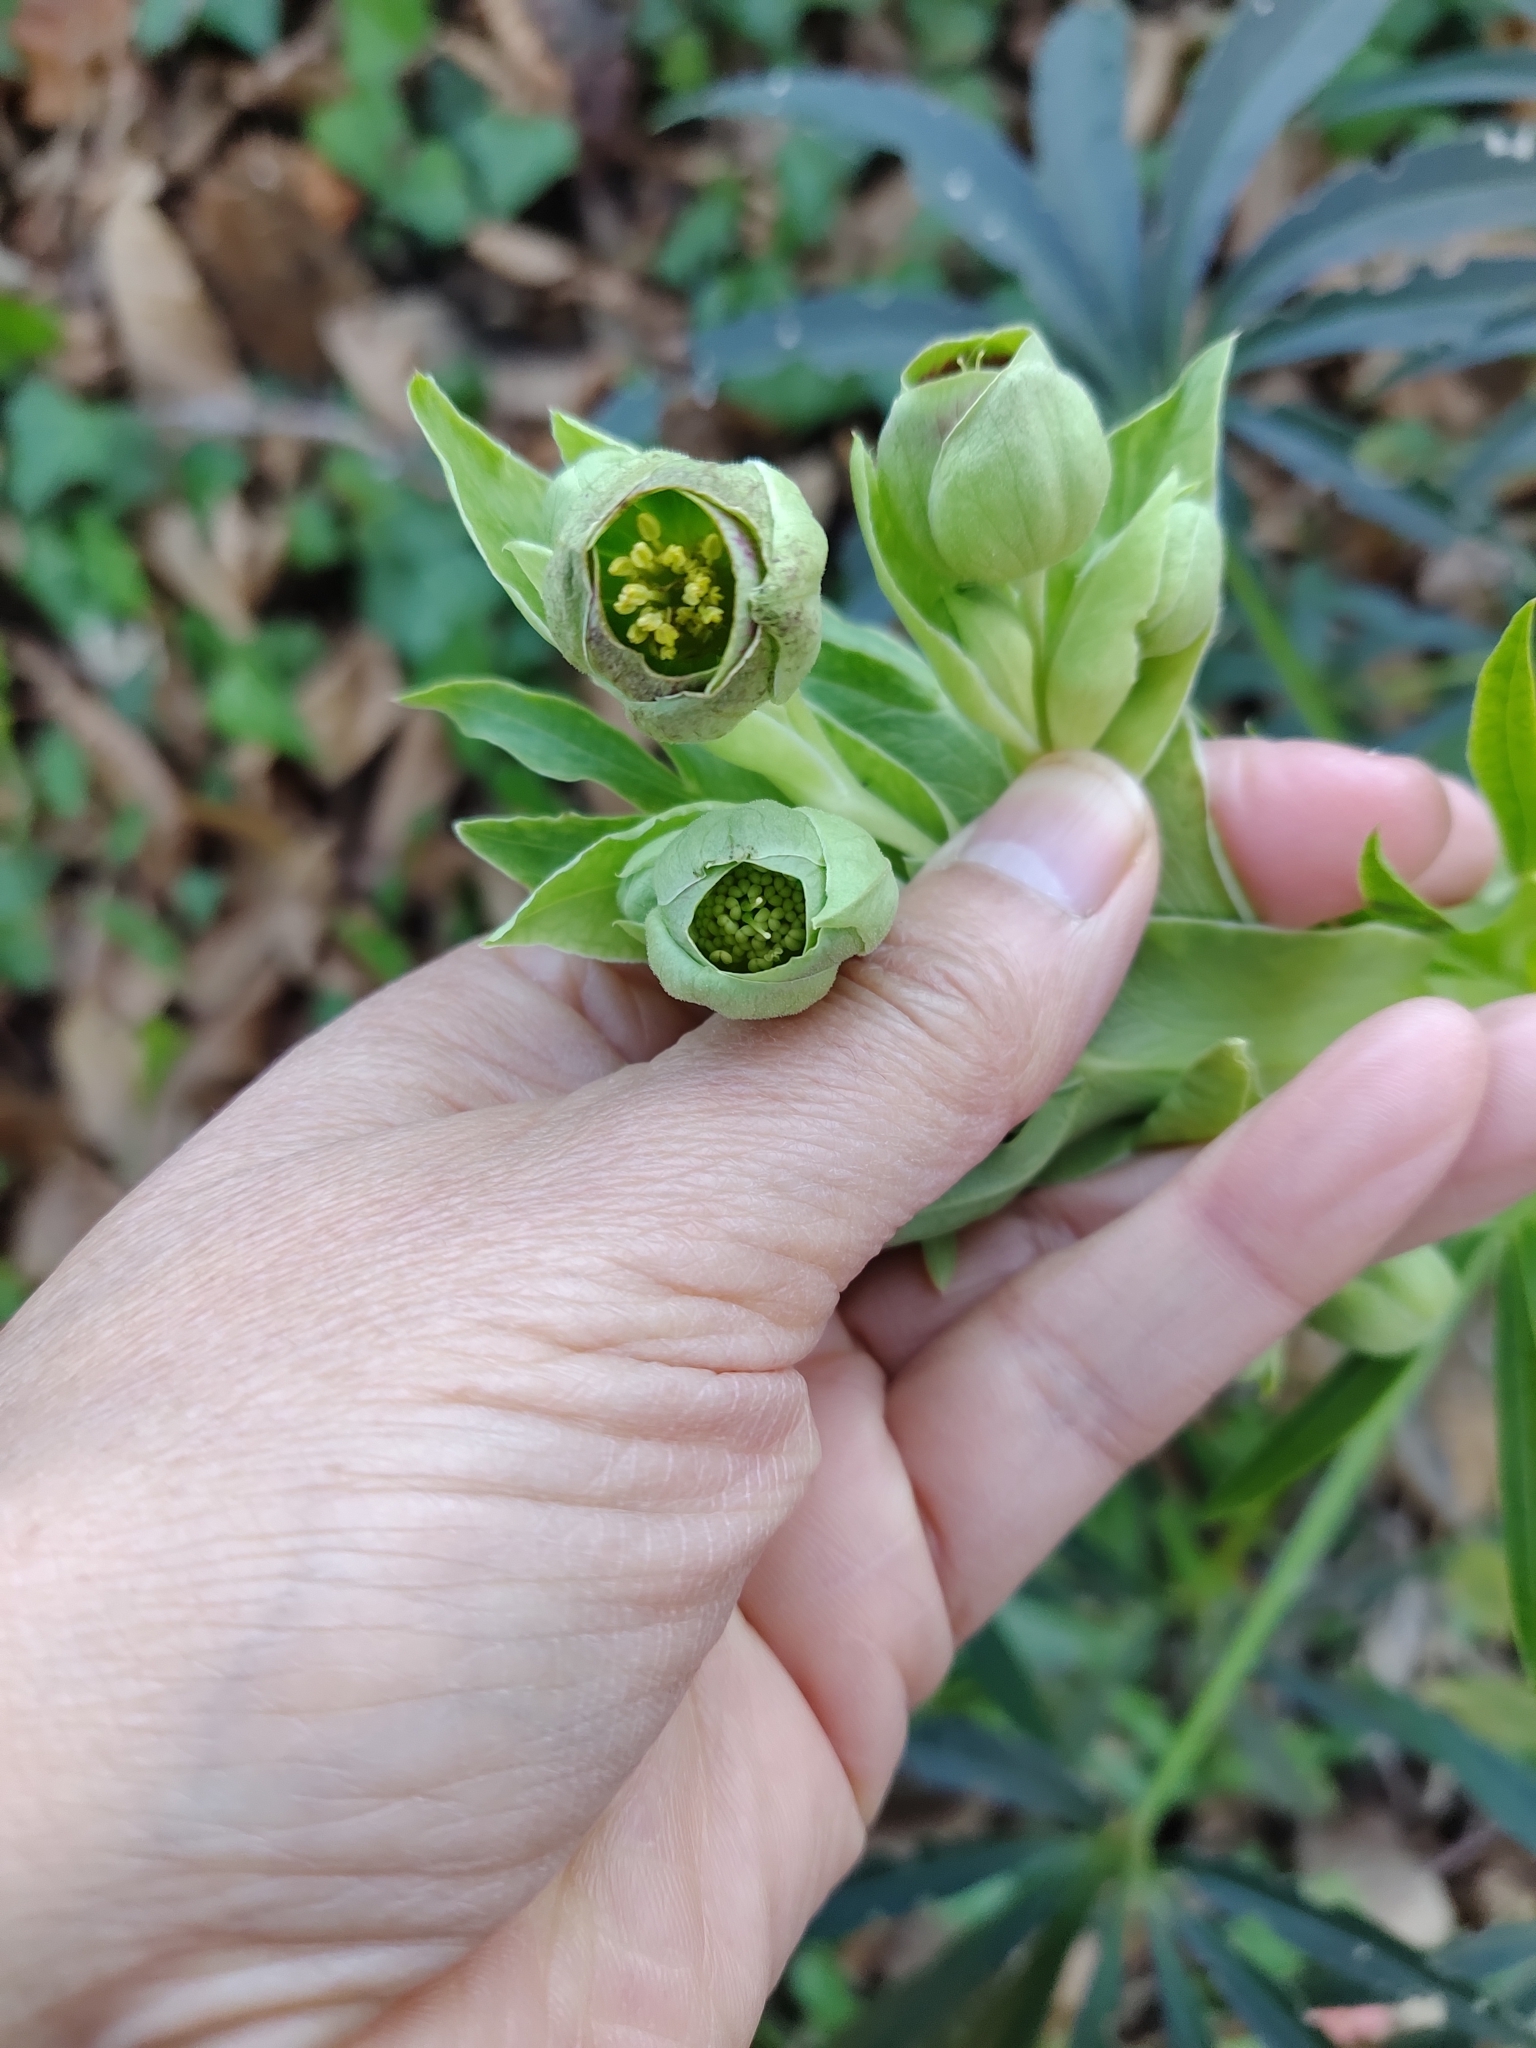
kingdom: Plantae
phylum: Tracheophyta
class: Magnoliopsida
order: Ranunculales
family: Ranunculaceae
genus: Helleborus
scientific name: Helleborus foetidus
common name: Stinking hellebore
